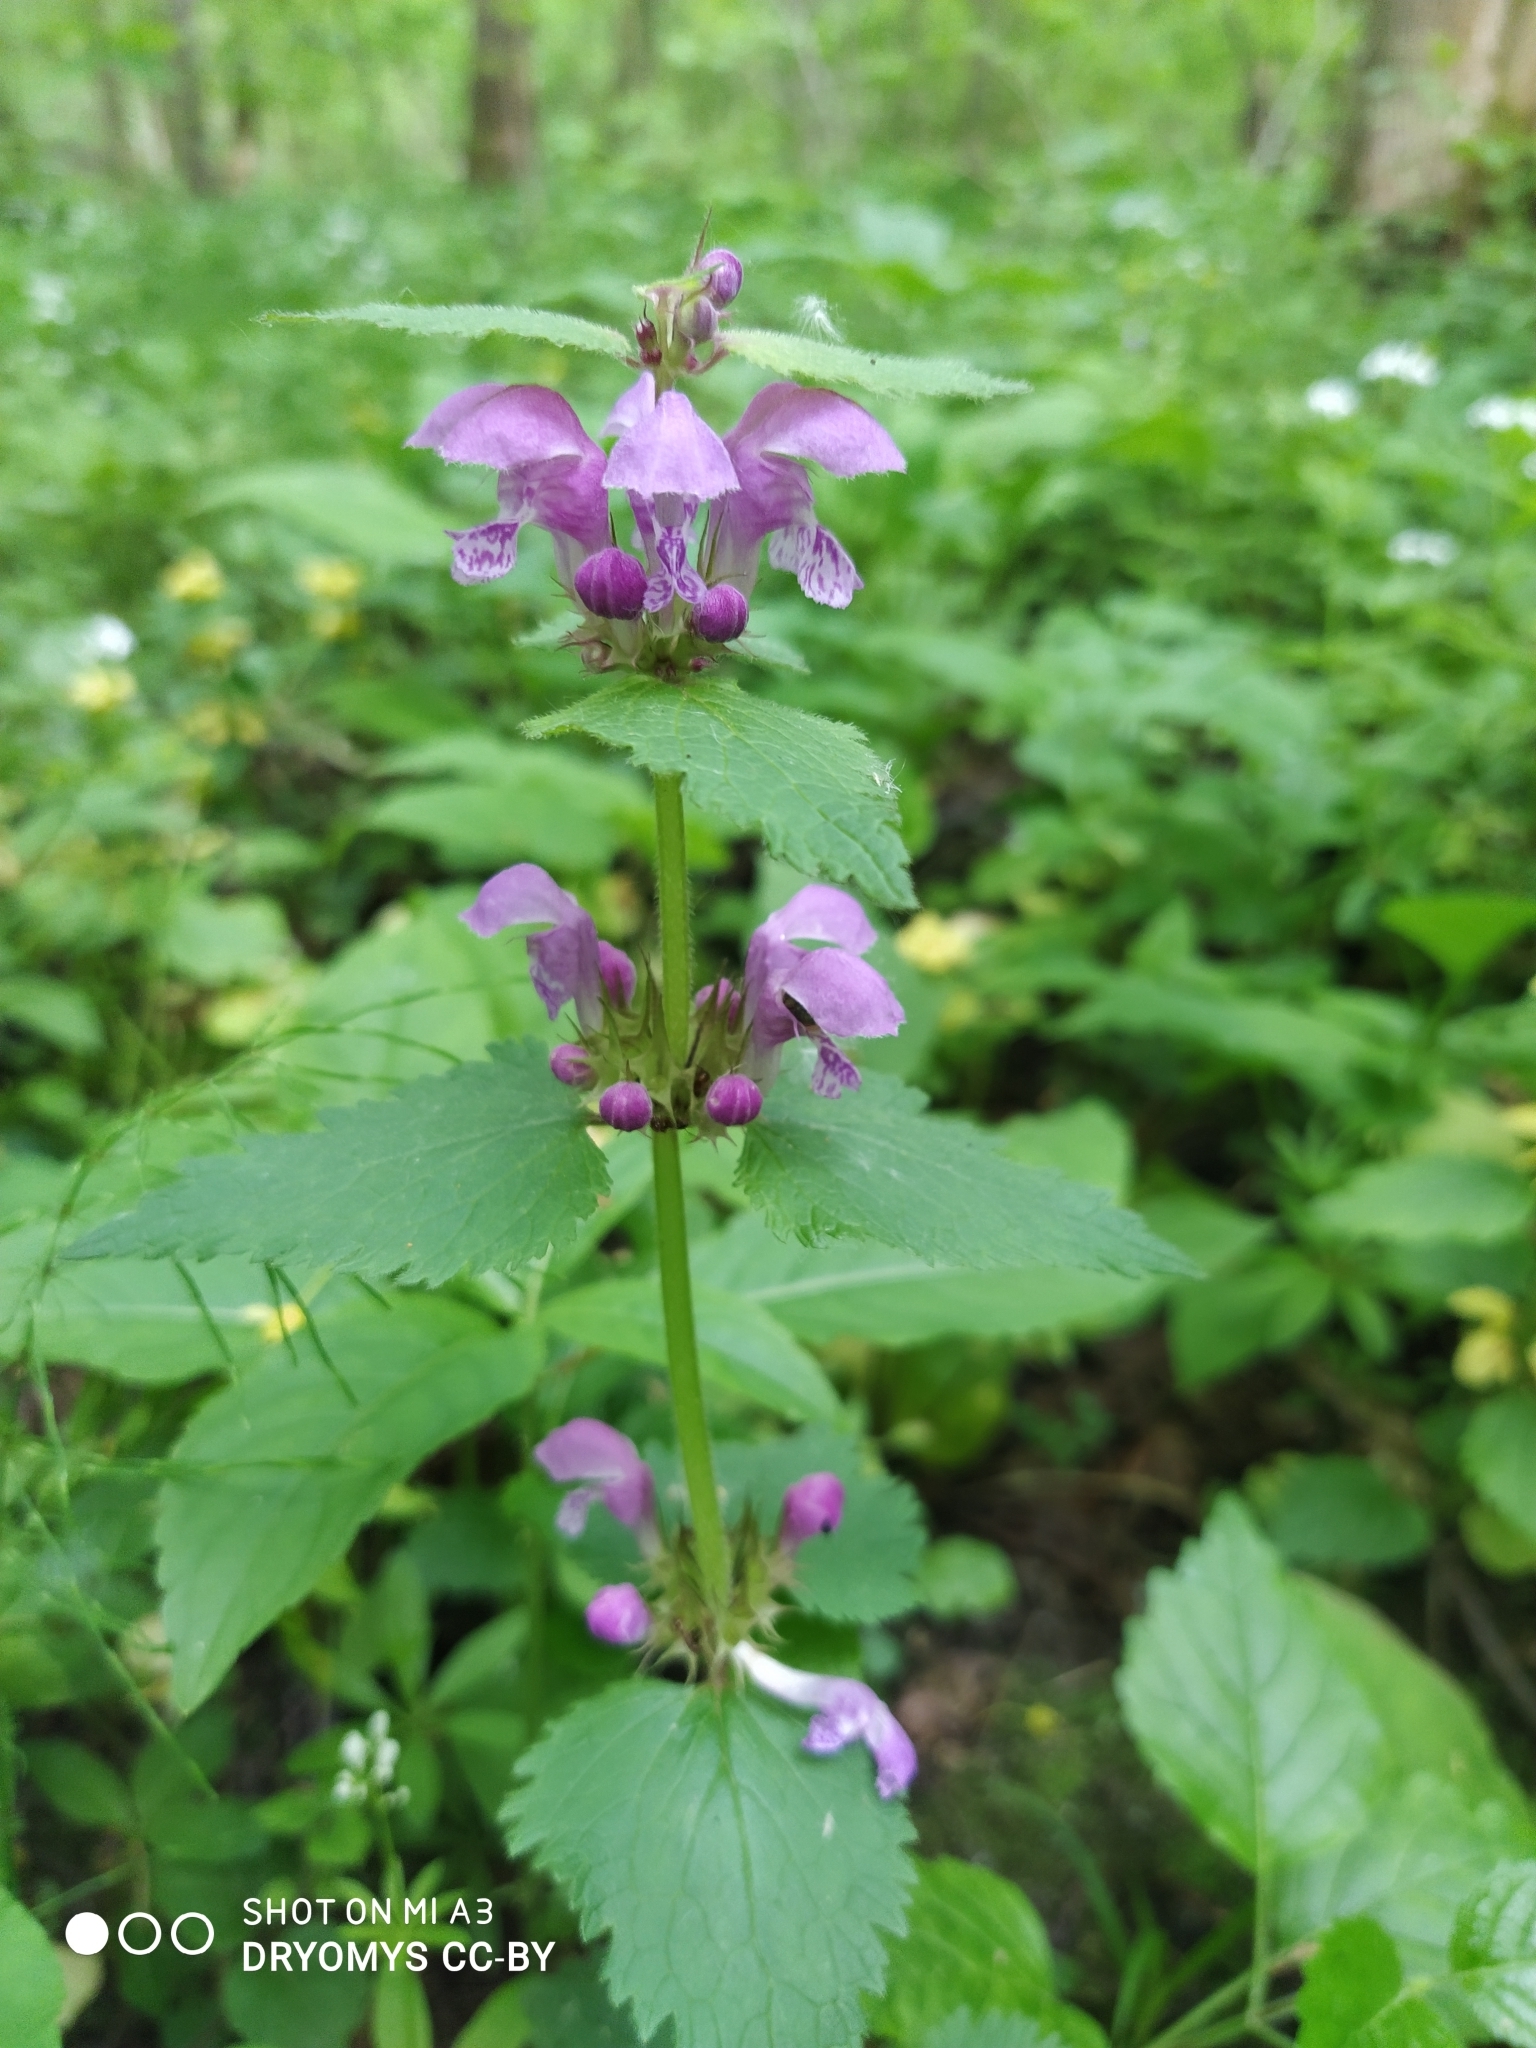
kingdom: Plantae
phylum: Tracheophyta
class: Magnoliopsida
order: Lamiales
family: Lamiaceae
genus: Lamium
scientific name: Lamium maculatum
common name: Spotted dead-nettle
